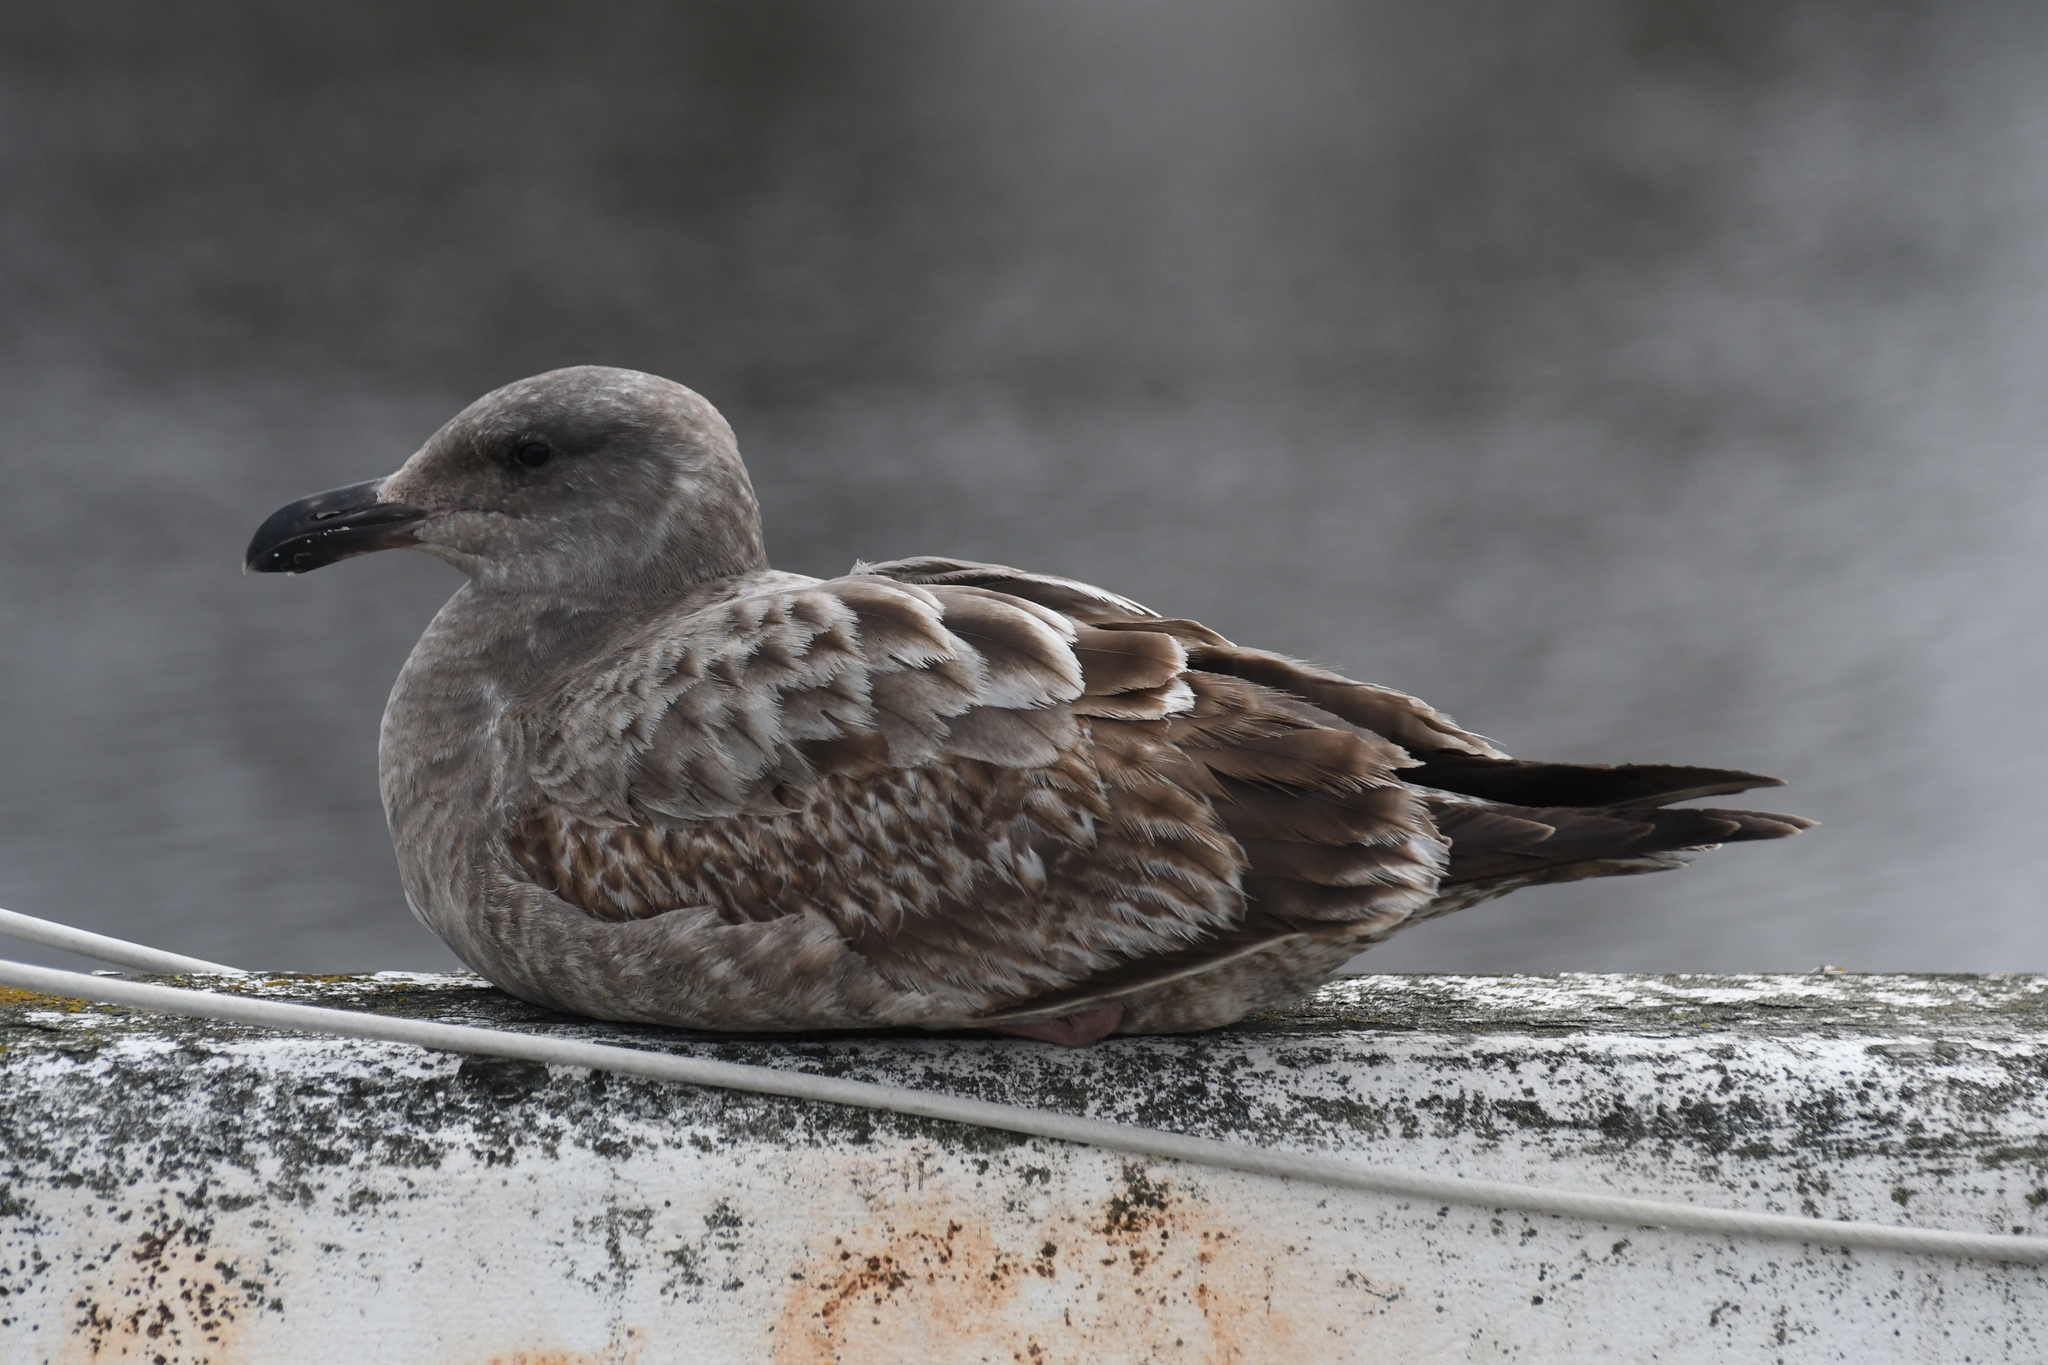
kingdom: Animalia
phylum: Chordata
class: Aves
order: Charadriiformes
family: Laridae
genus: Larus
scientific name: Larus occidentalis
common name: Western gull
